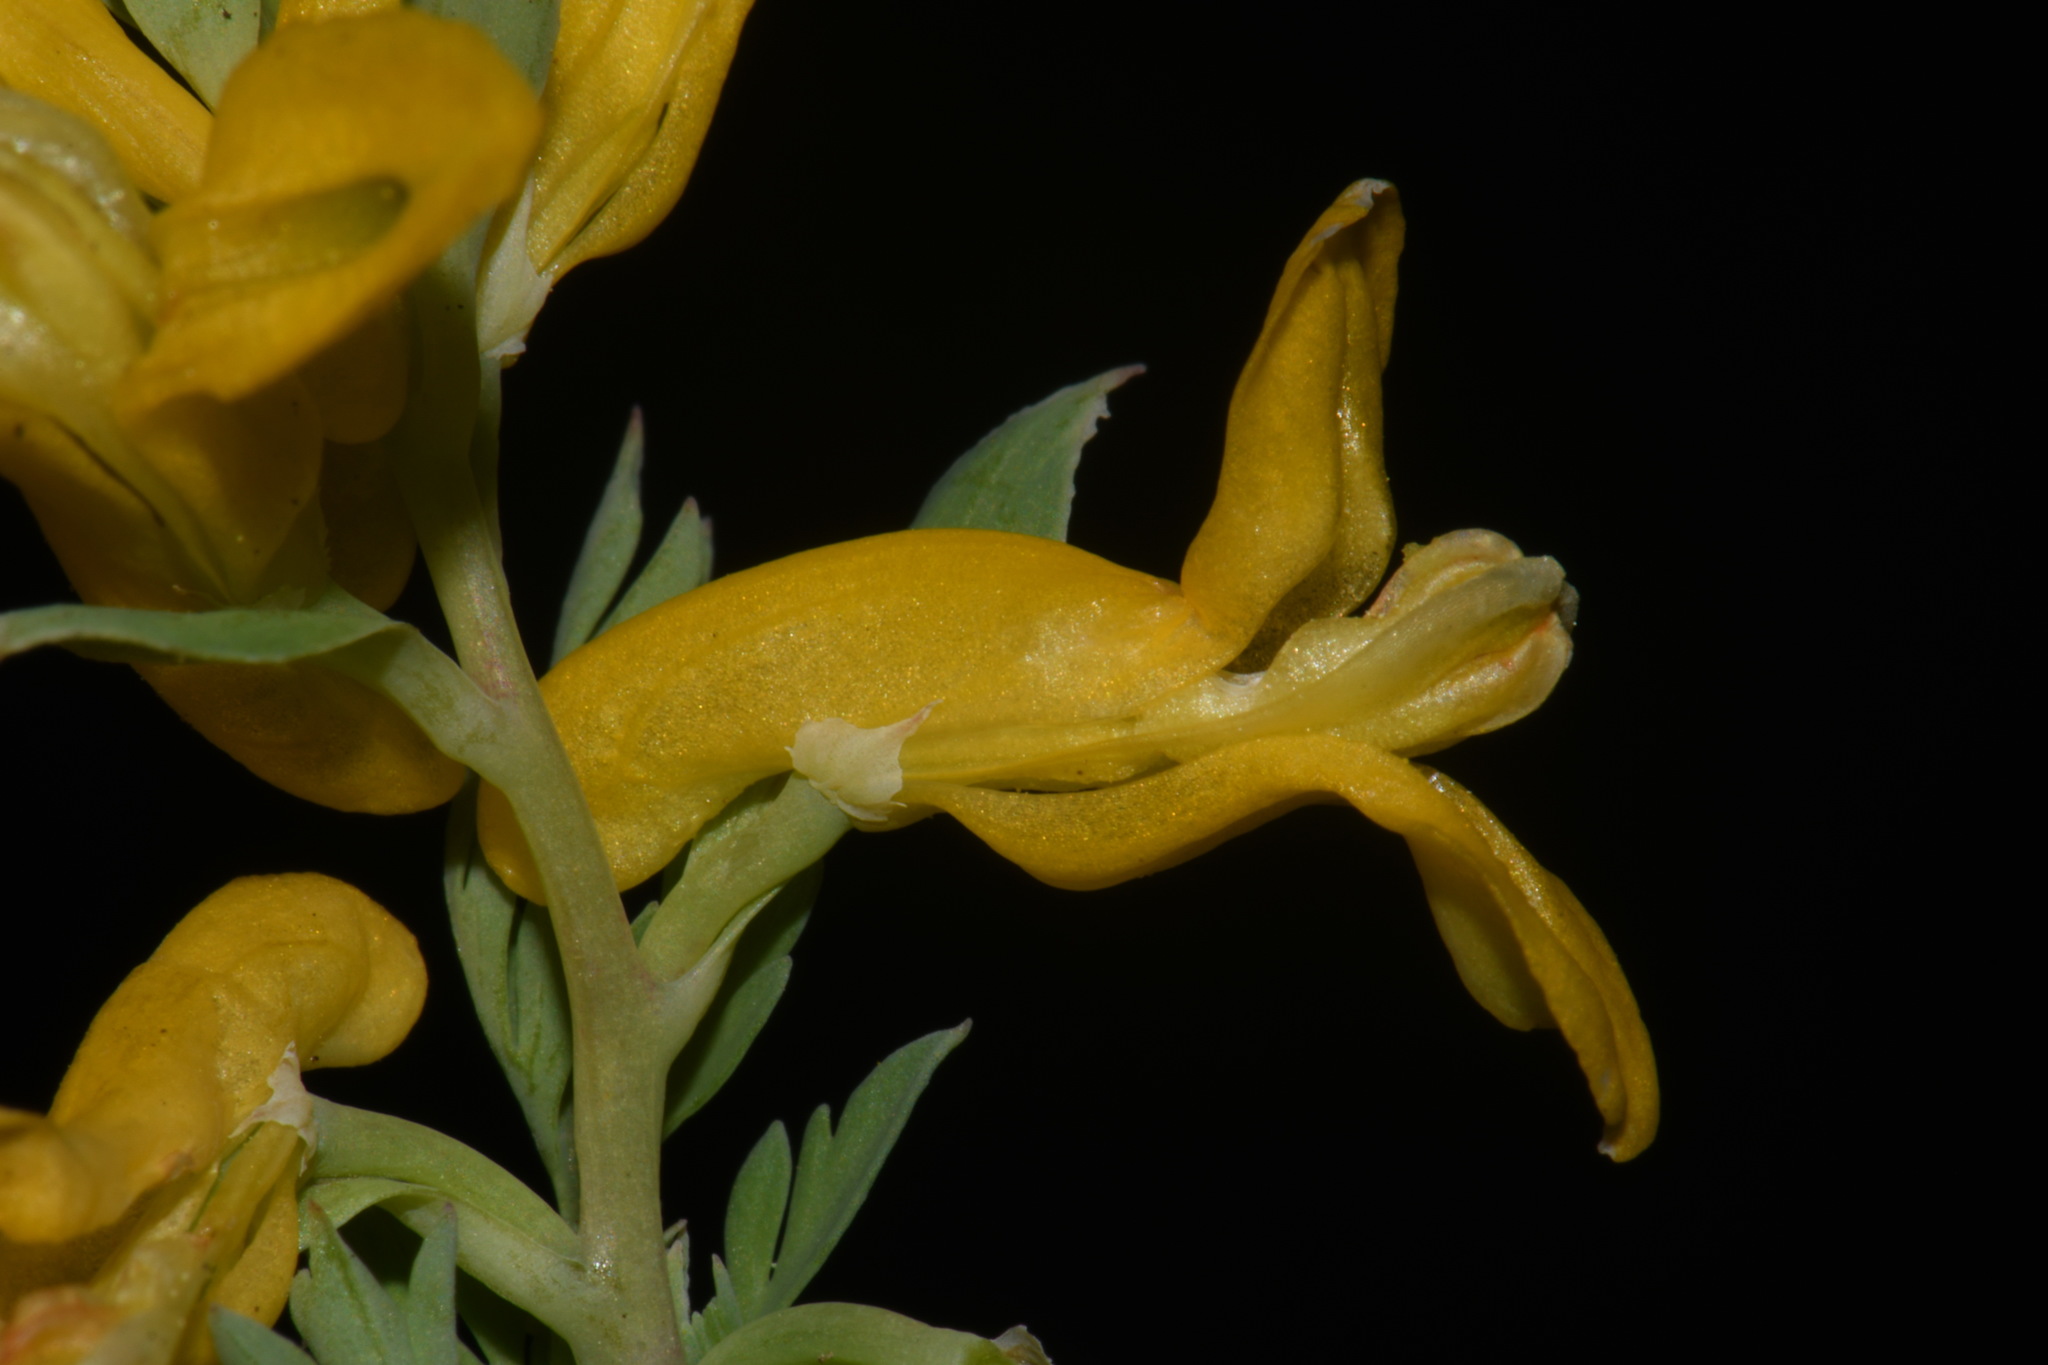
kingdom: Plantae
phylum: Tracheophyta
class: Magnoliopsida
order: Ranunculales
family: Papaveraceae
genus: Corydalis
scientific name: Corydalis aurea
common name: Golden corydalis
